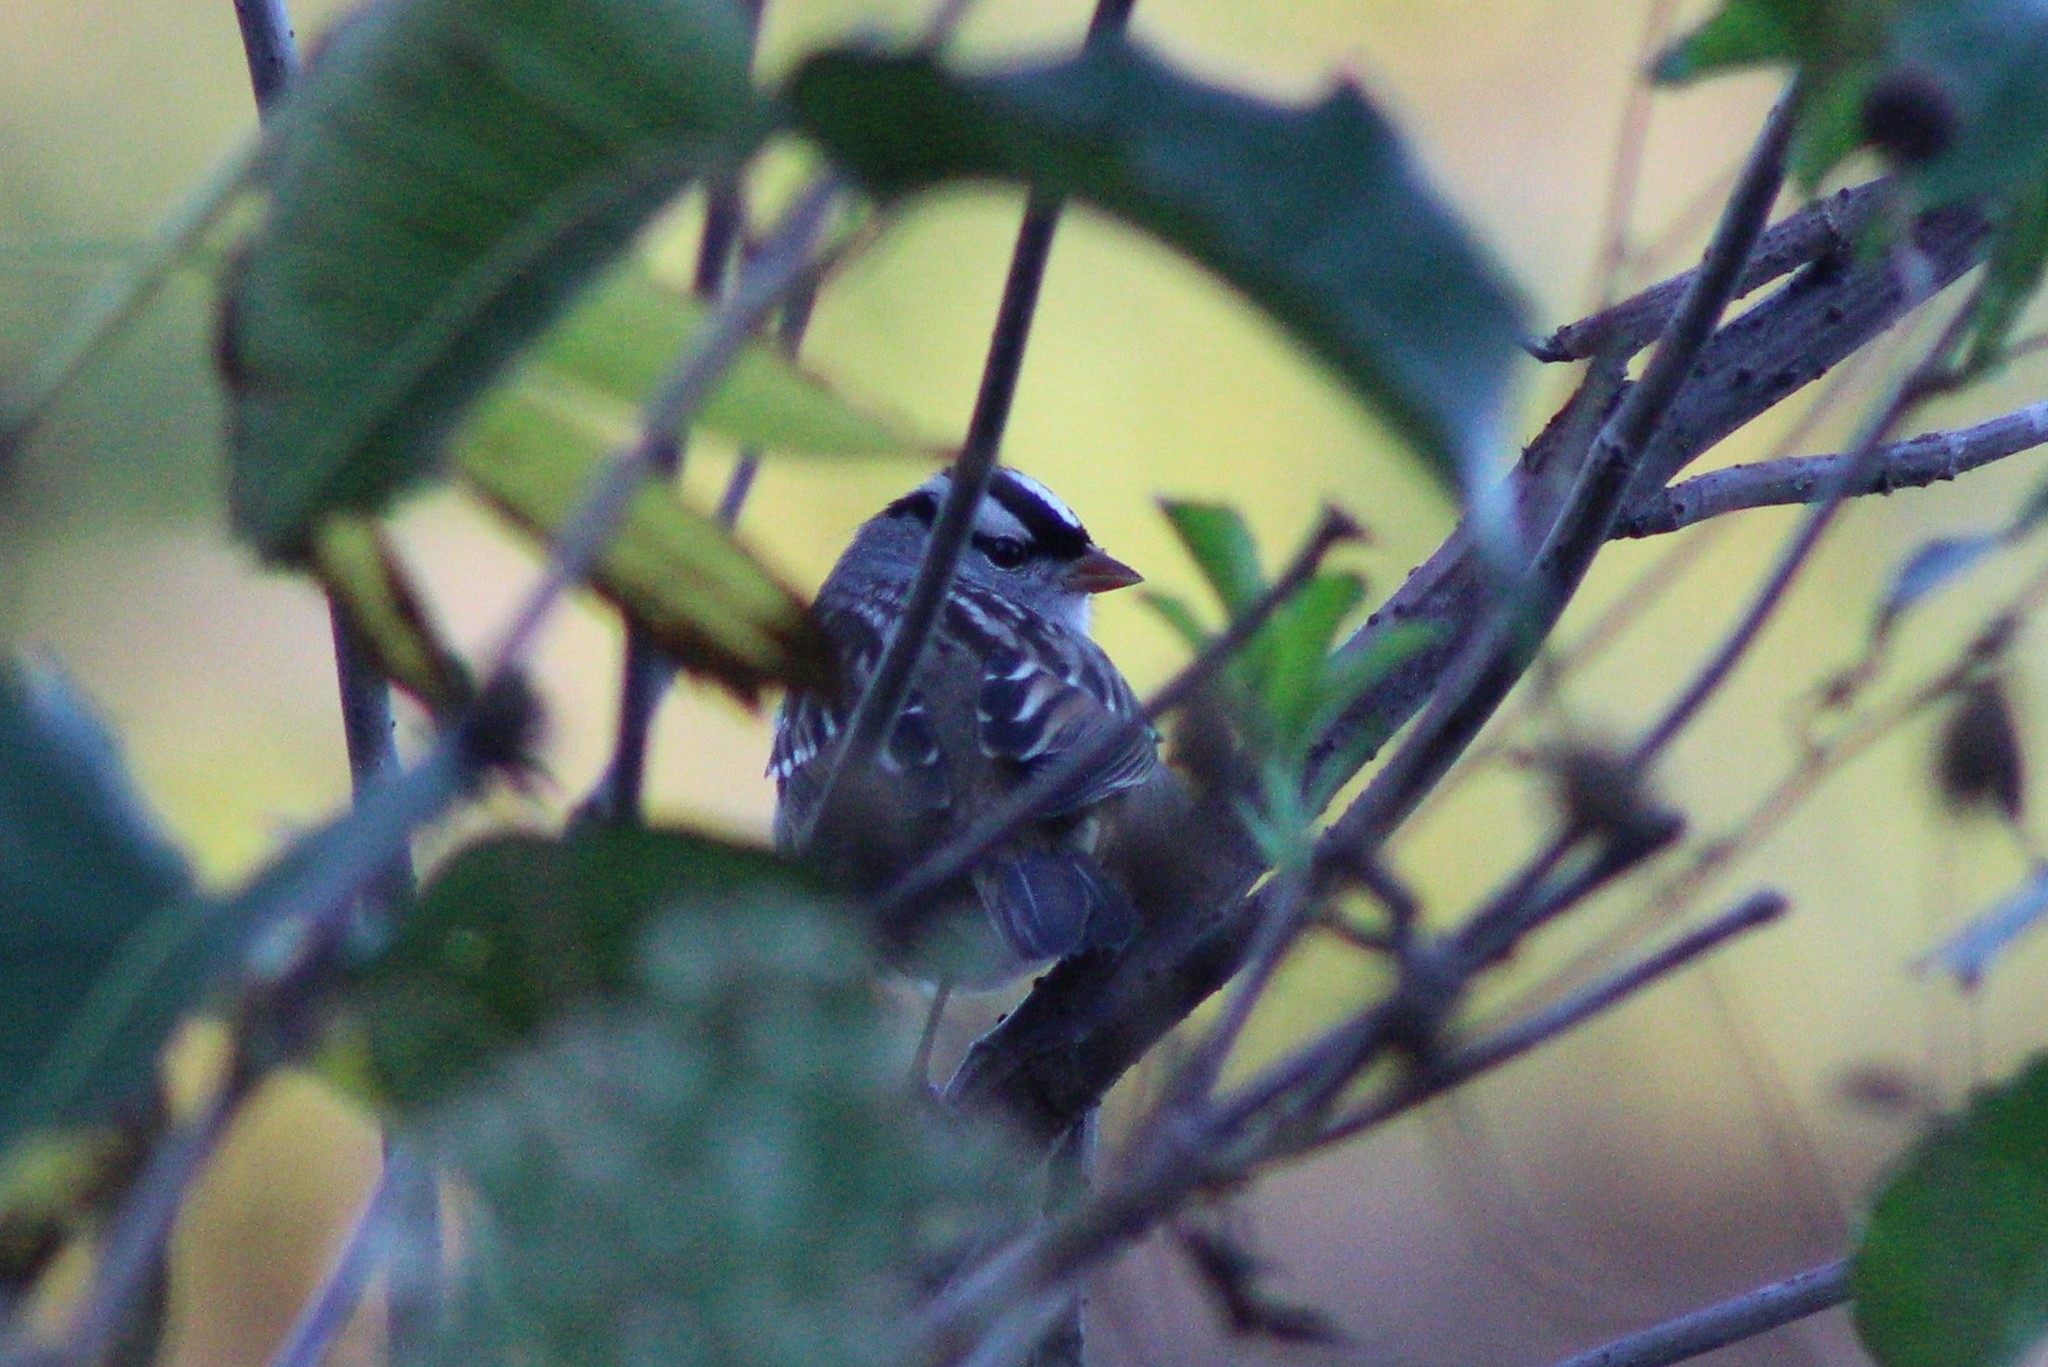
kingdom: Animalia
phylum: Chordata
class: Aves
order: Passeriformes
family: Passerellidae
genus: Zonotrichia
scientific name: Zonotrichia leucophrys
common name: White-crowned sparrow
